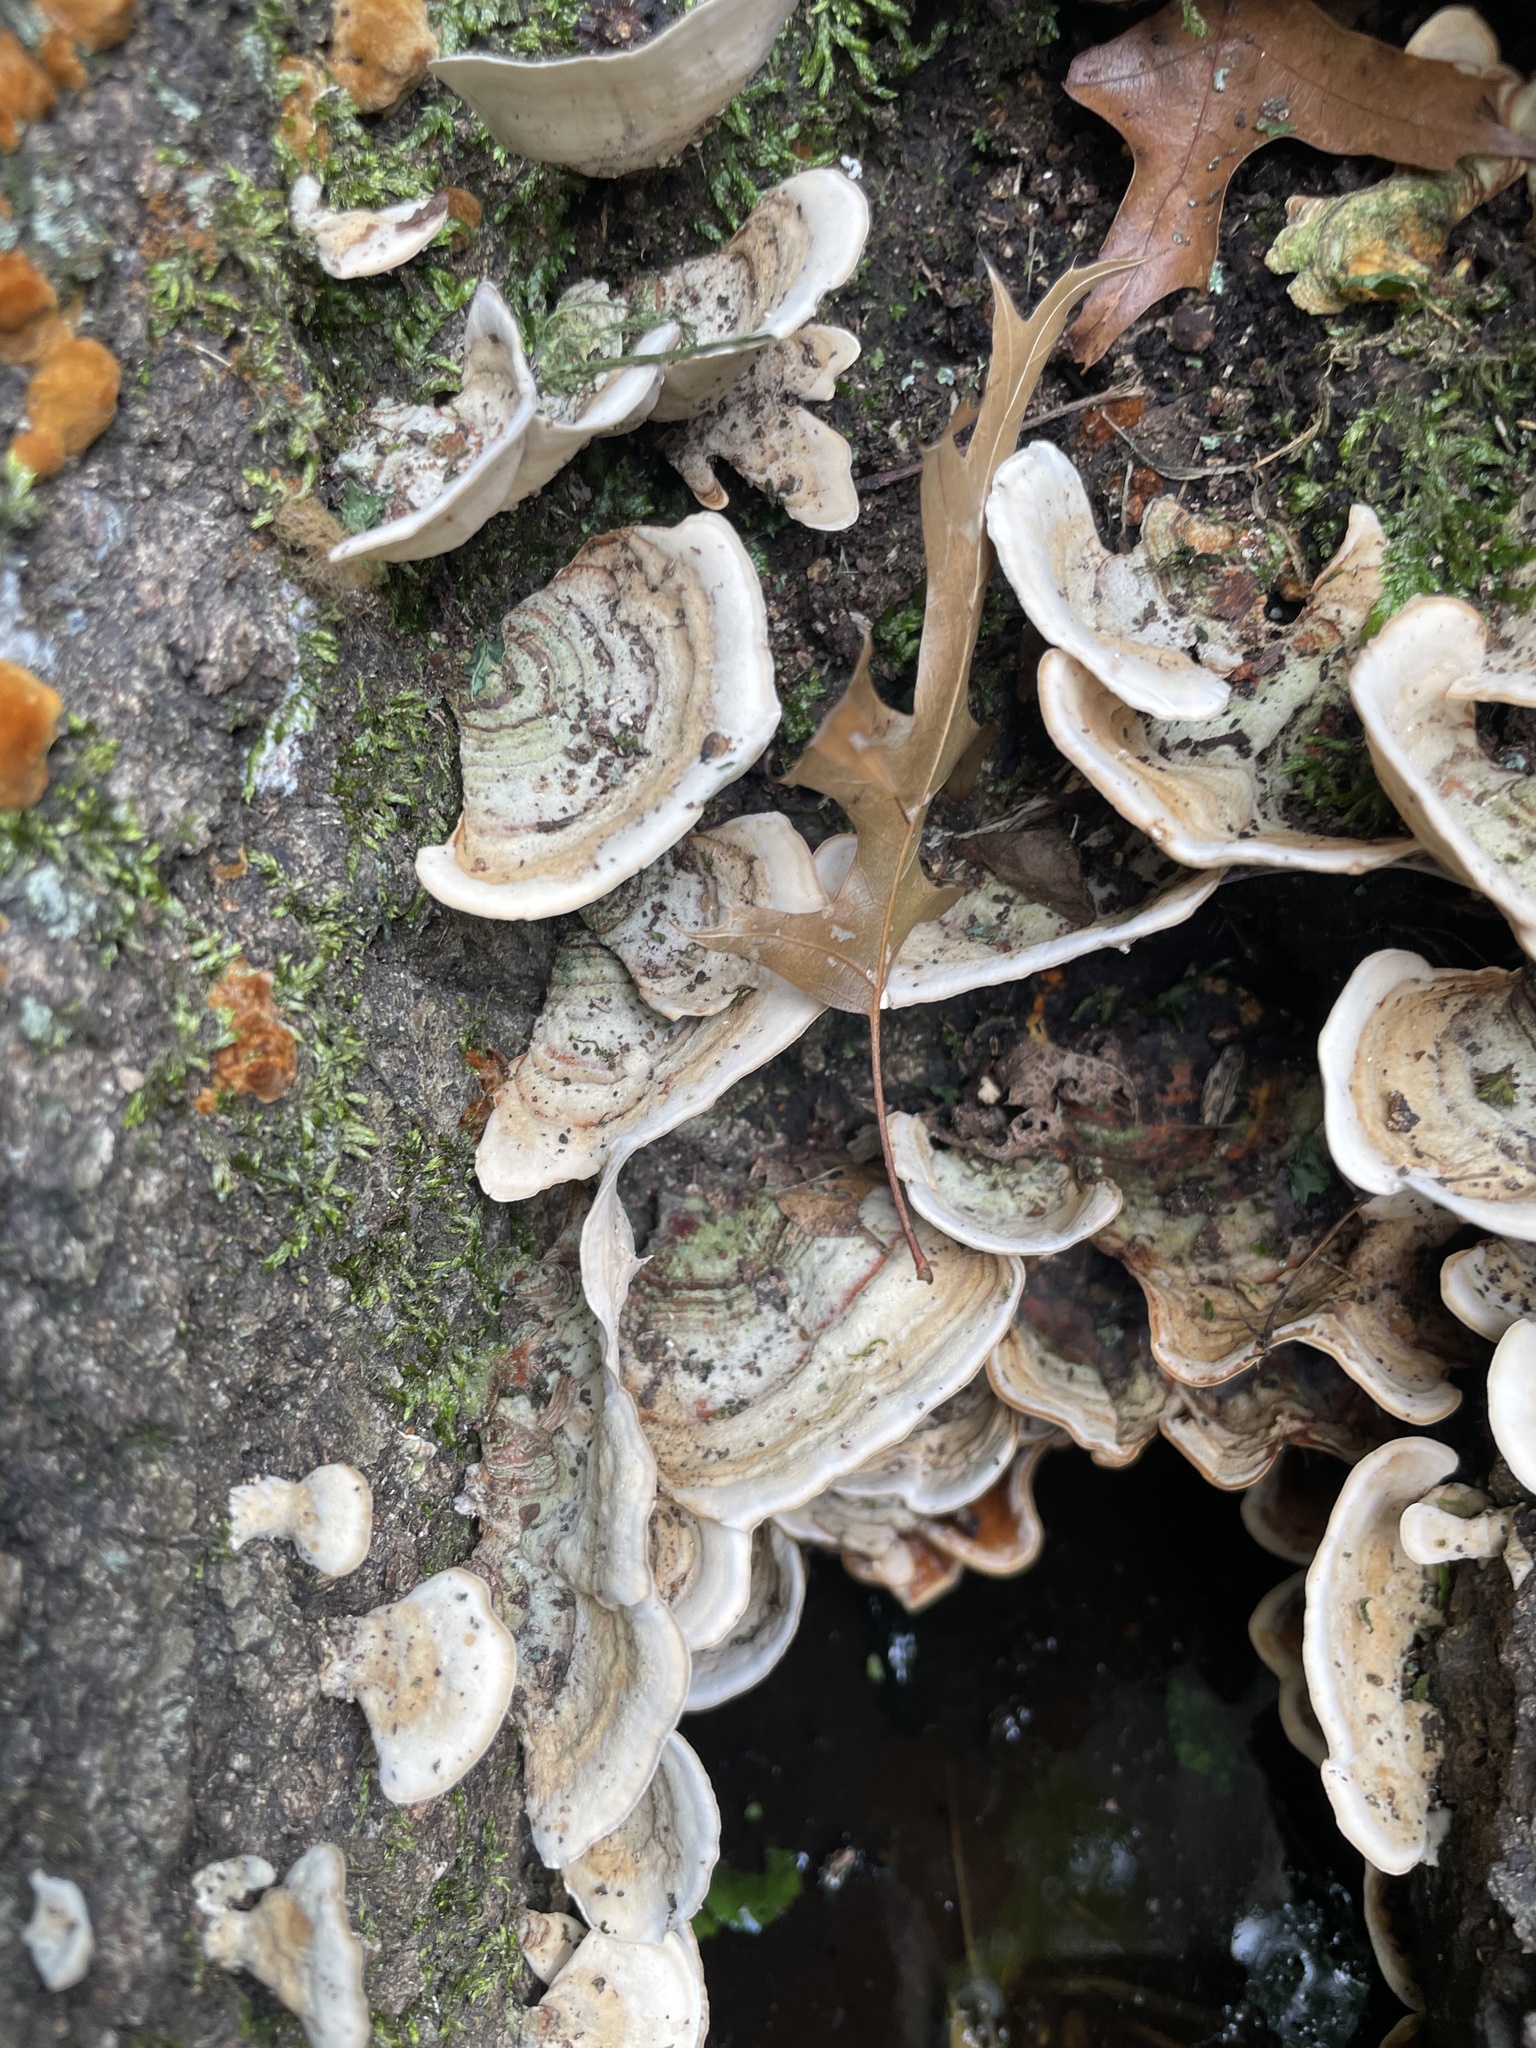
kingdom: Fungi
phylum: Basidiomycota
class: Agaricomycetes
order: Russulales
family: Stereaceae
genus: Stereum
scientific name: Stereum subtomentosum
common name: Yellowing curtain crust
